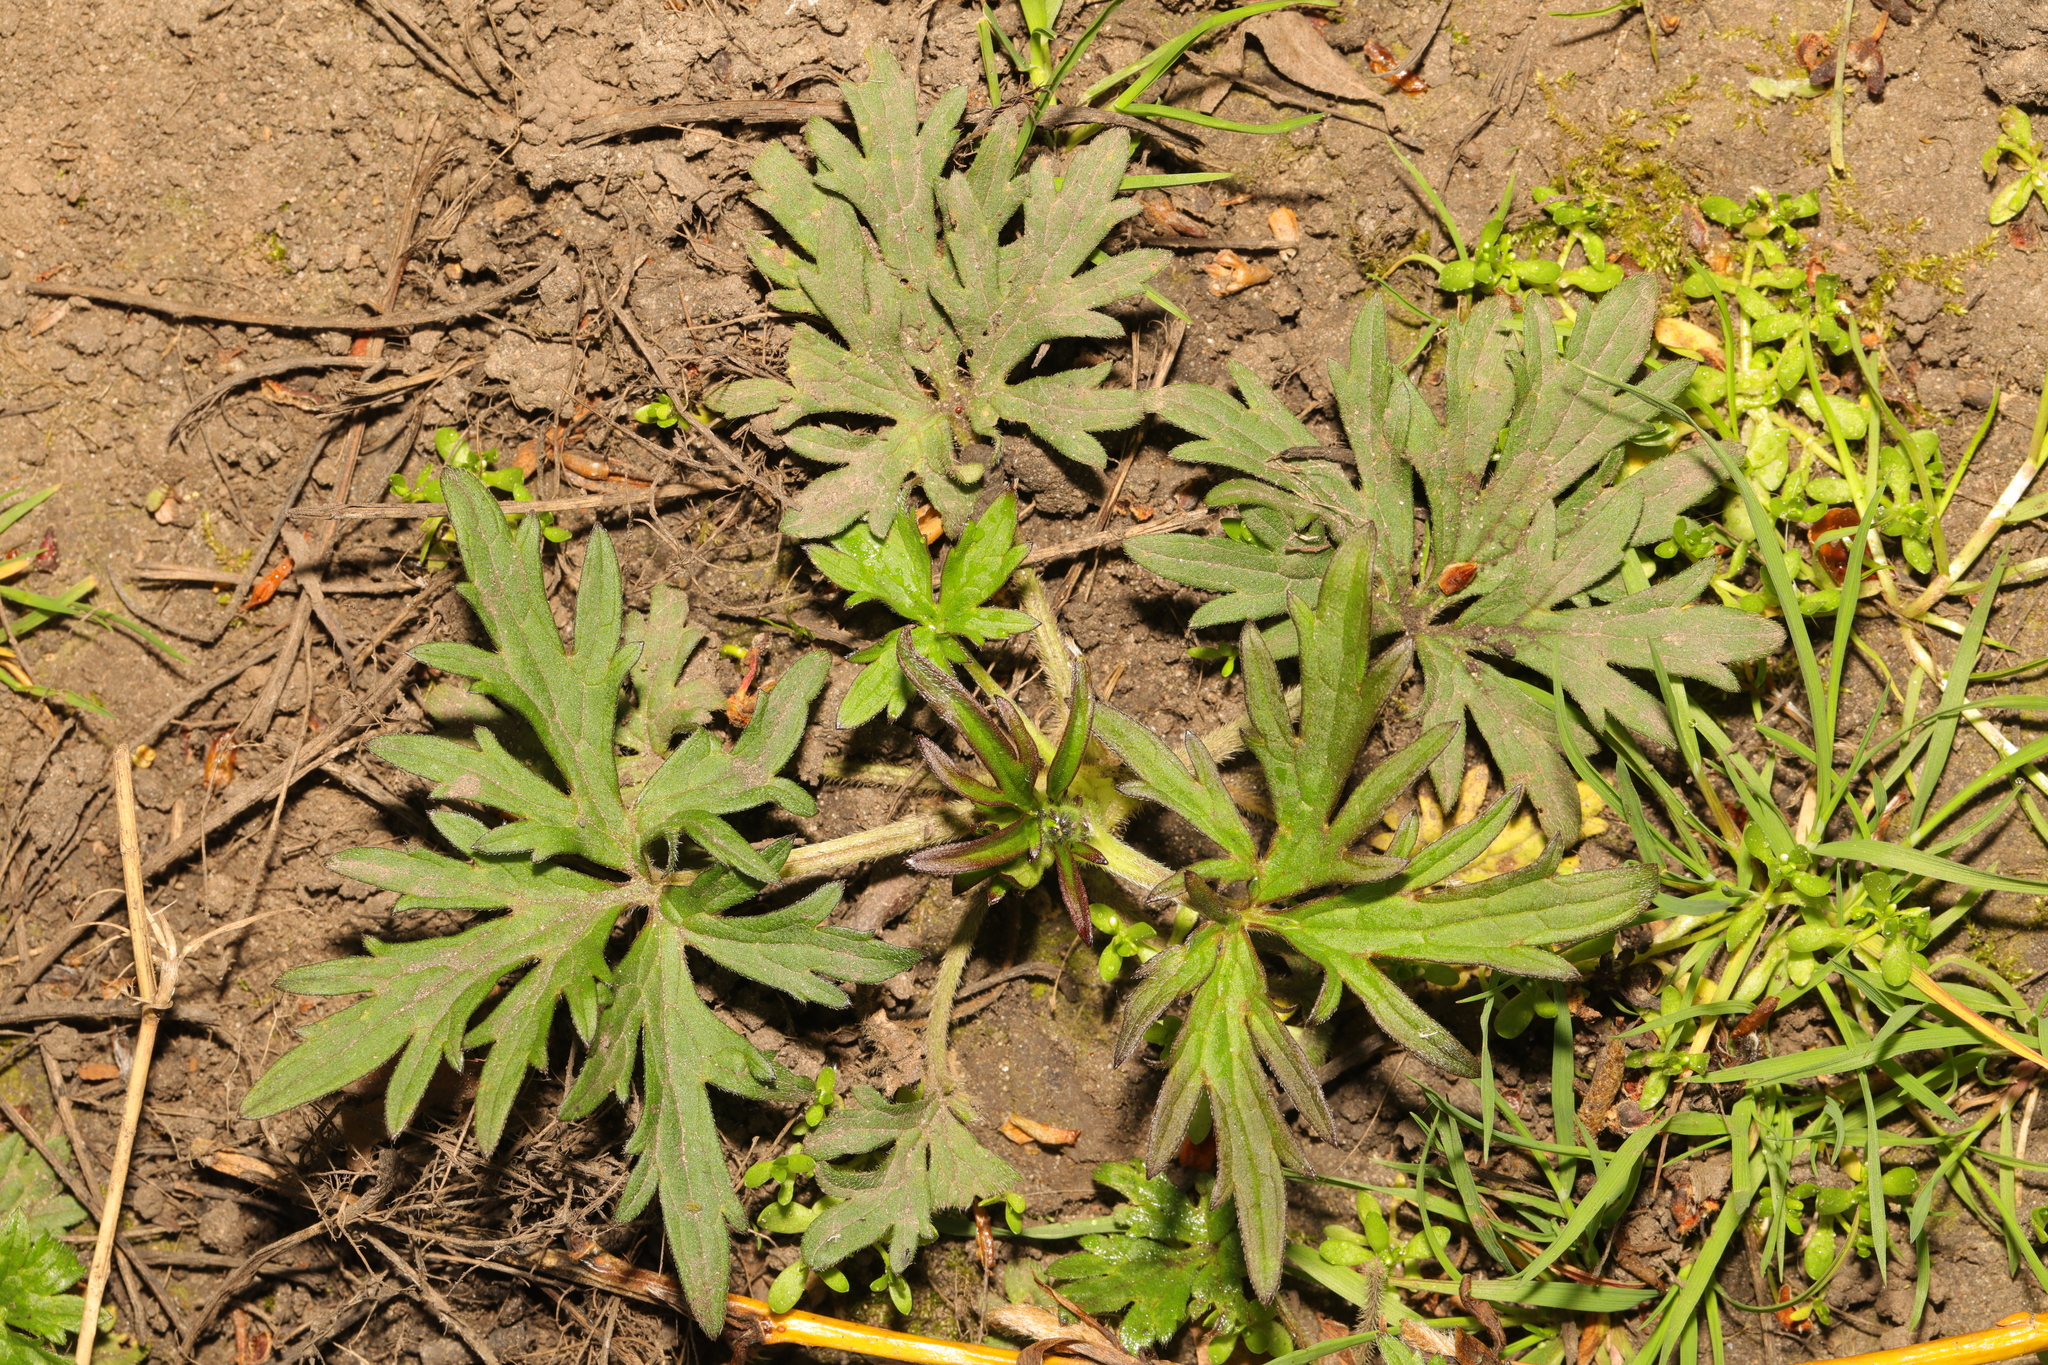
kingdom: Plantae
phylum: Tracheophyta
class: Magnoliopsida
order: Ranunculales
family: Ranunculaceae
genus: Ranunculus
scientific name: Ranunculus acris
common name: Meadow buttercup
